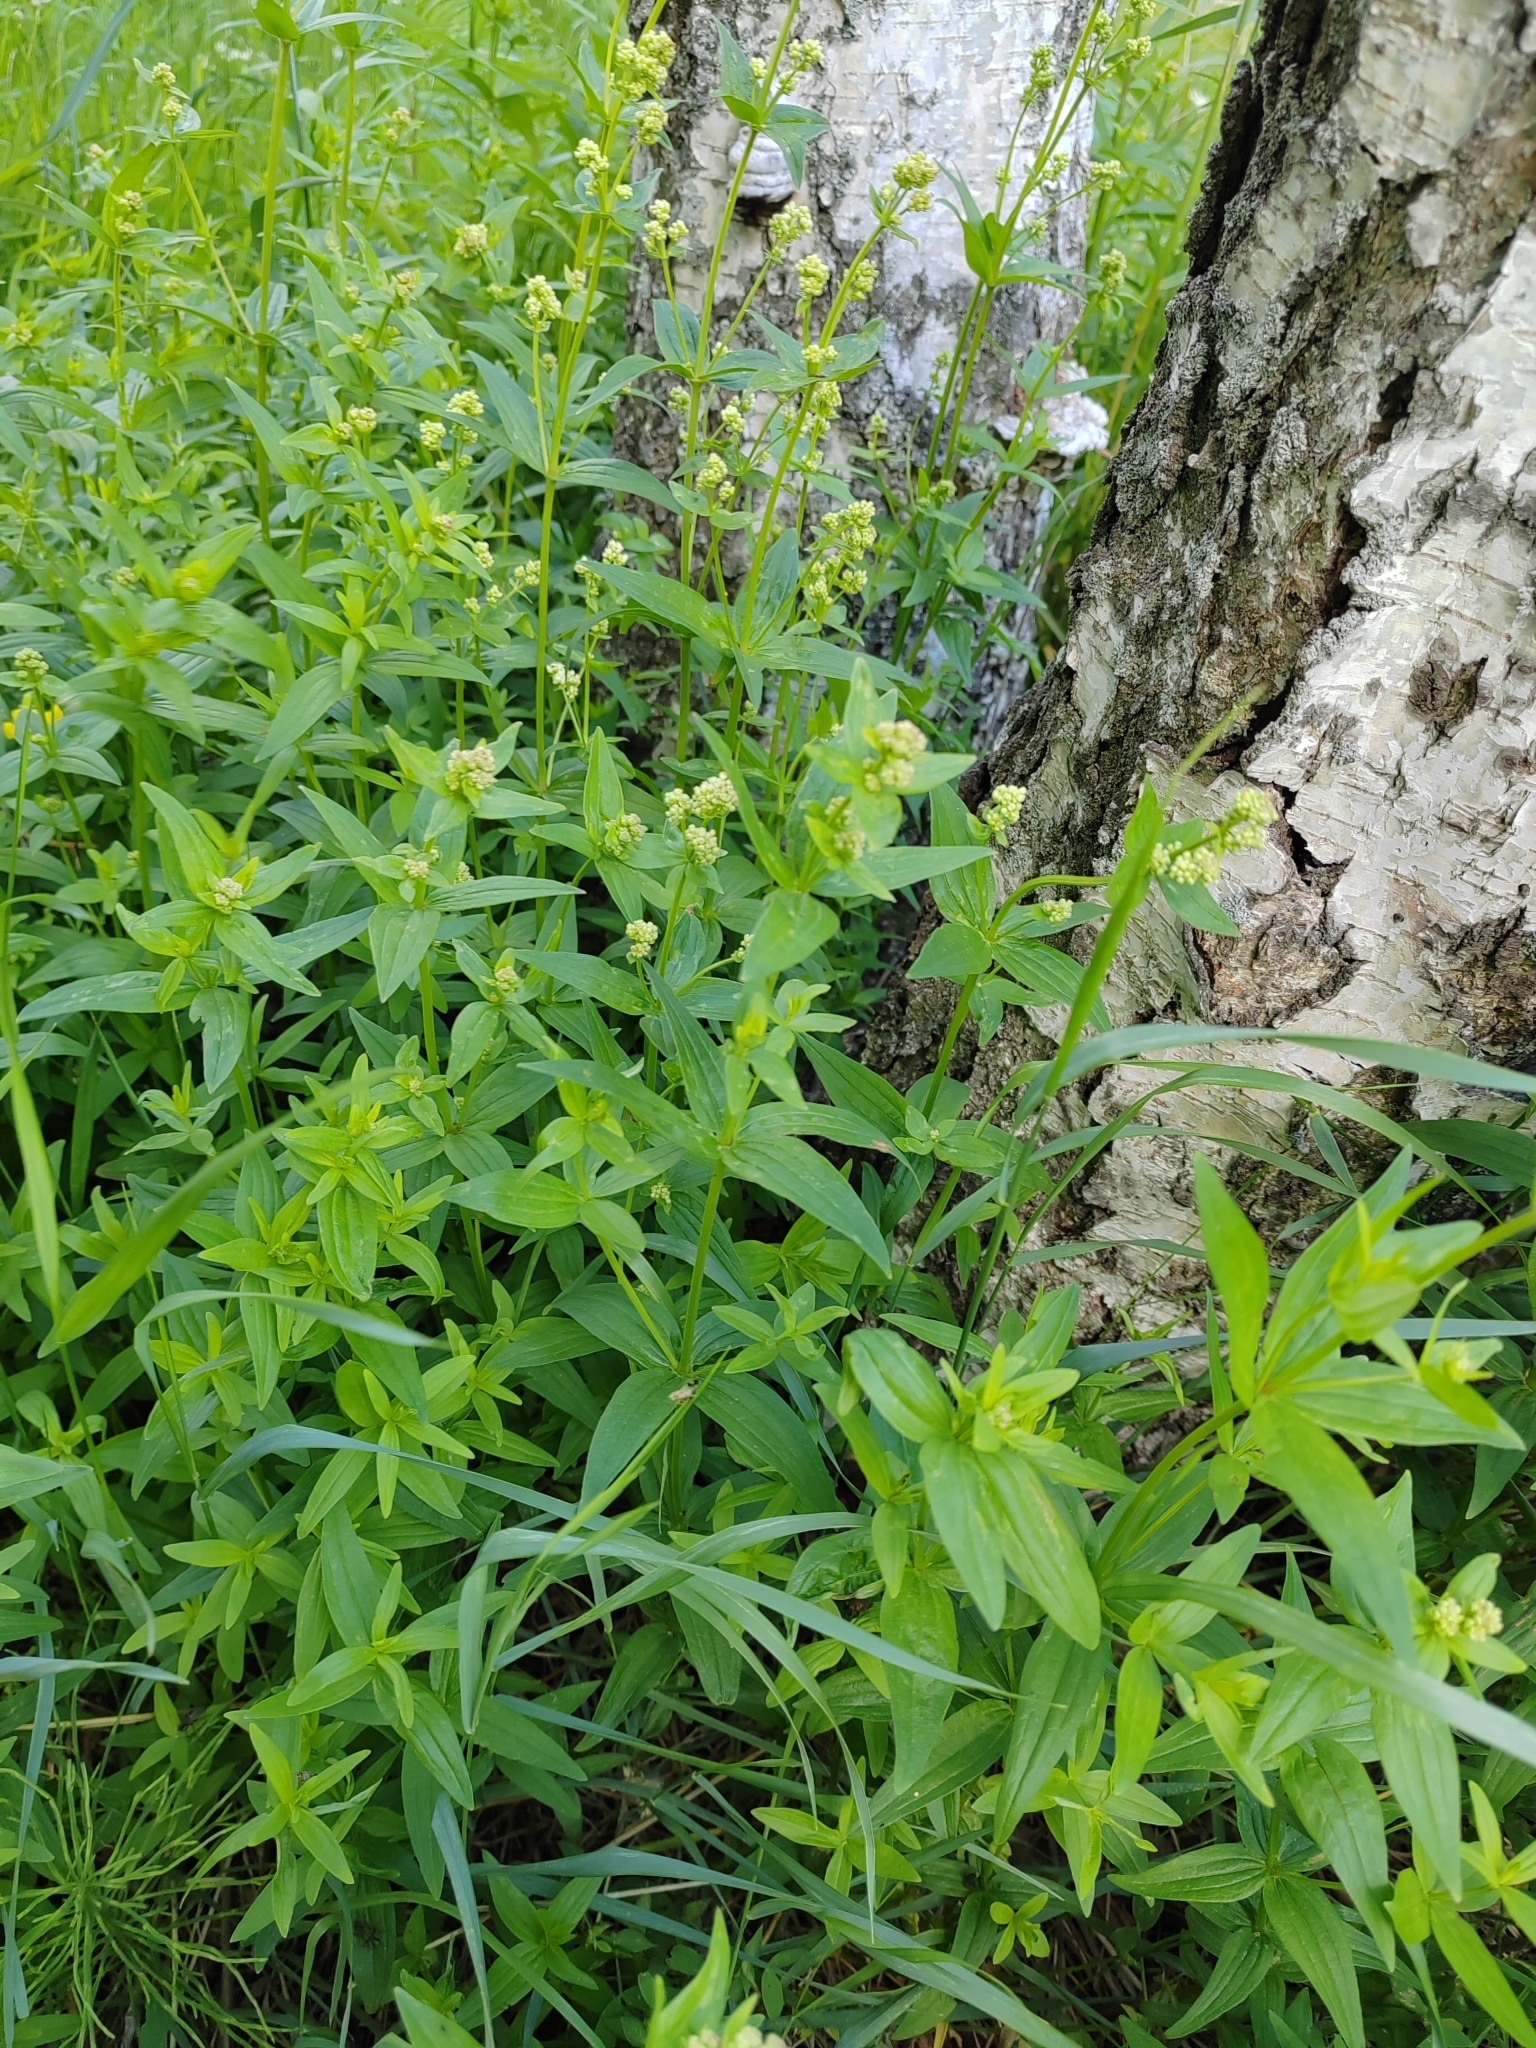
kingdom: Plantae
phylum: Tracheophyta
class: Magnoliopsida
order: Gentianales
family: Rubiaceae
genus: Galium
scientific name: Galium rubioides
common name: European bedstraw
